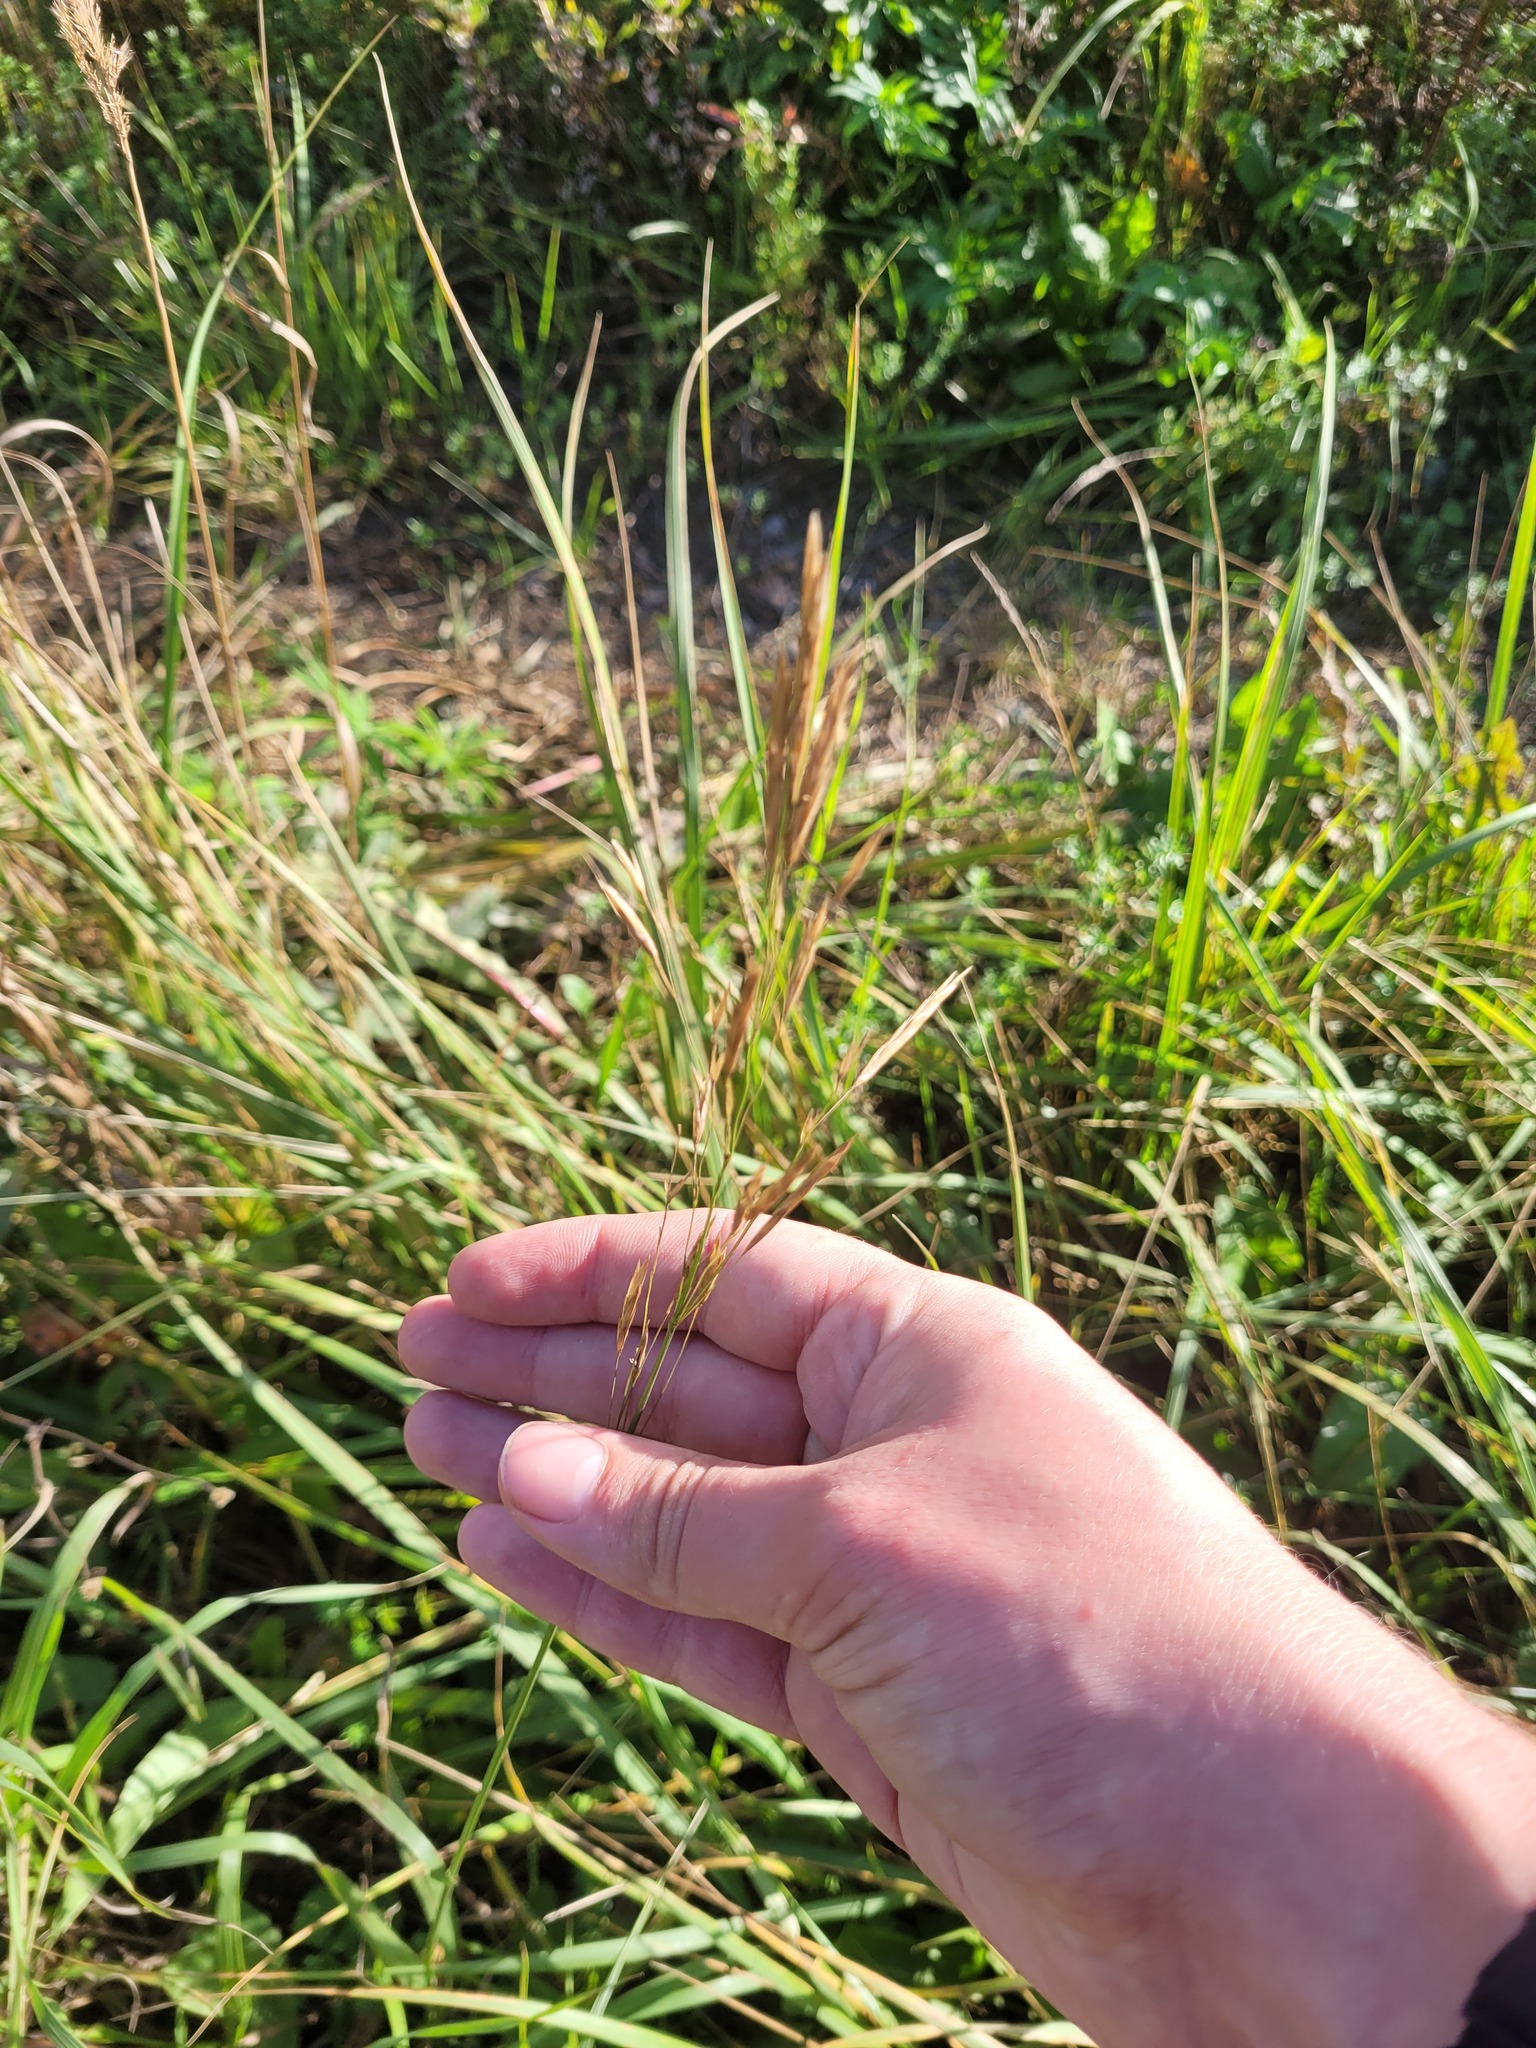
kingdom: Plantae
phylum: Tracheophyta
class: Liliopsida
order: Poales
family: Poaceae
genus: Bromus
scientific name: Bromus inermis
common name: Smooth brome
